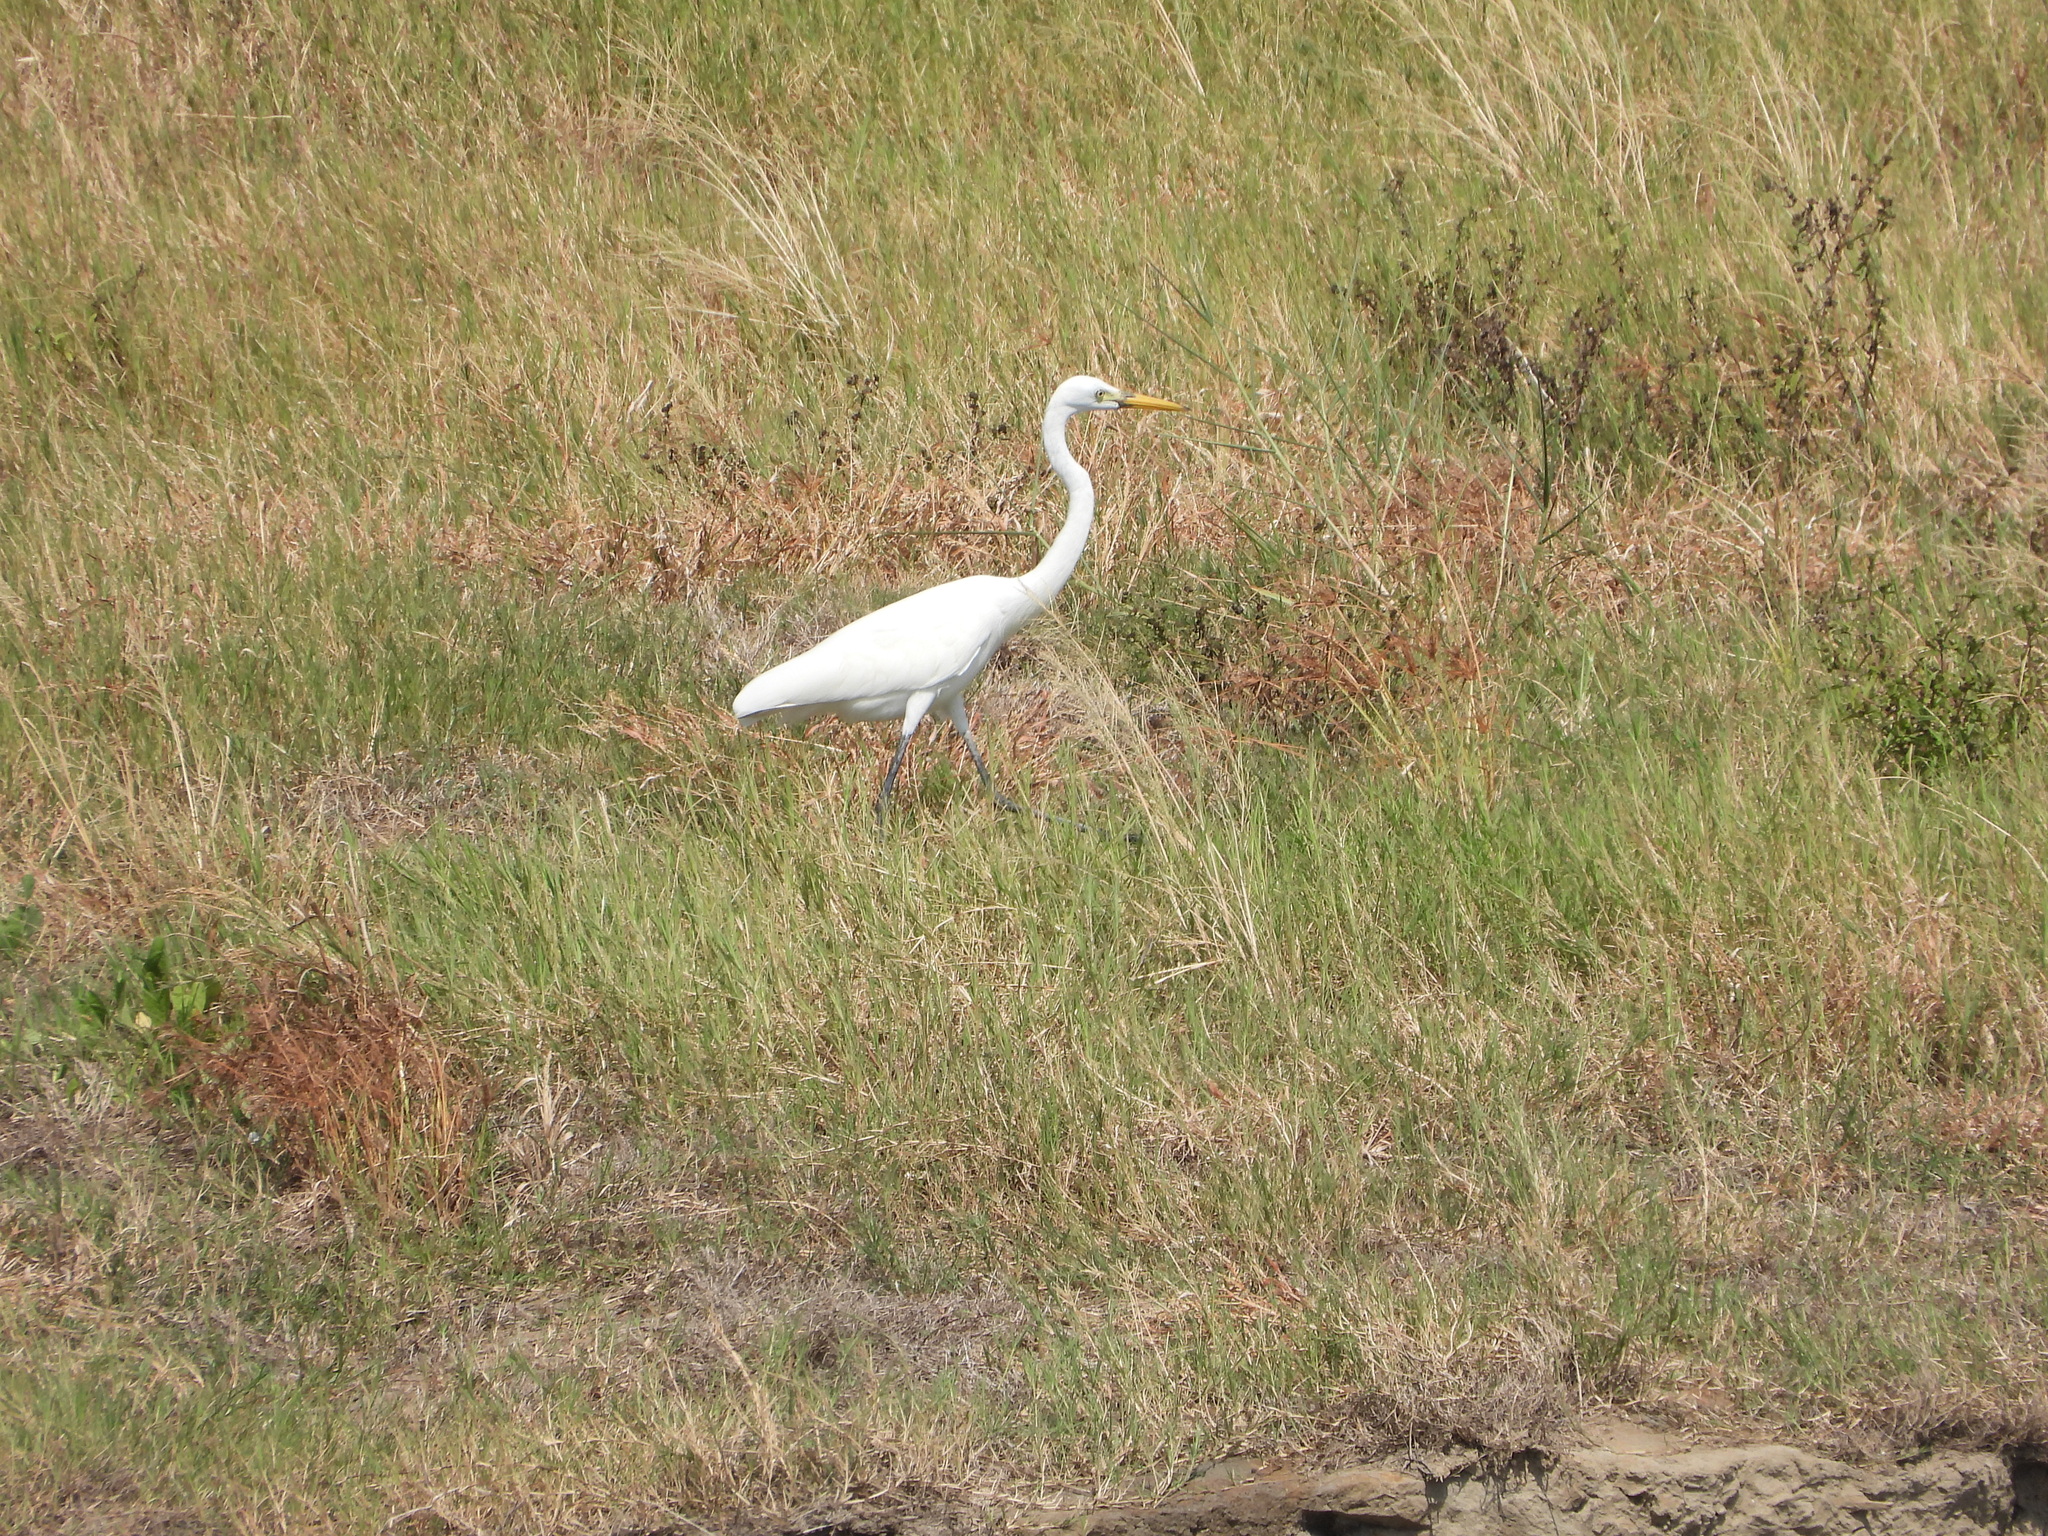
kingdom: Animalia
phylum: Chordata
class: Aves
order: Pelecaniformes
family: Ardeidae
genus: Egretta
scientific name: Egretta intermedia
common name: Intermediate egret
